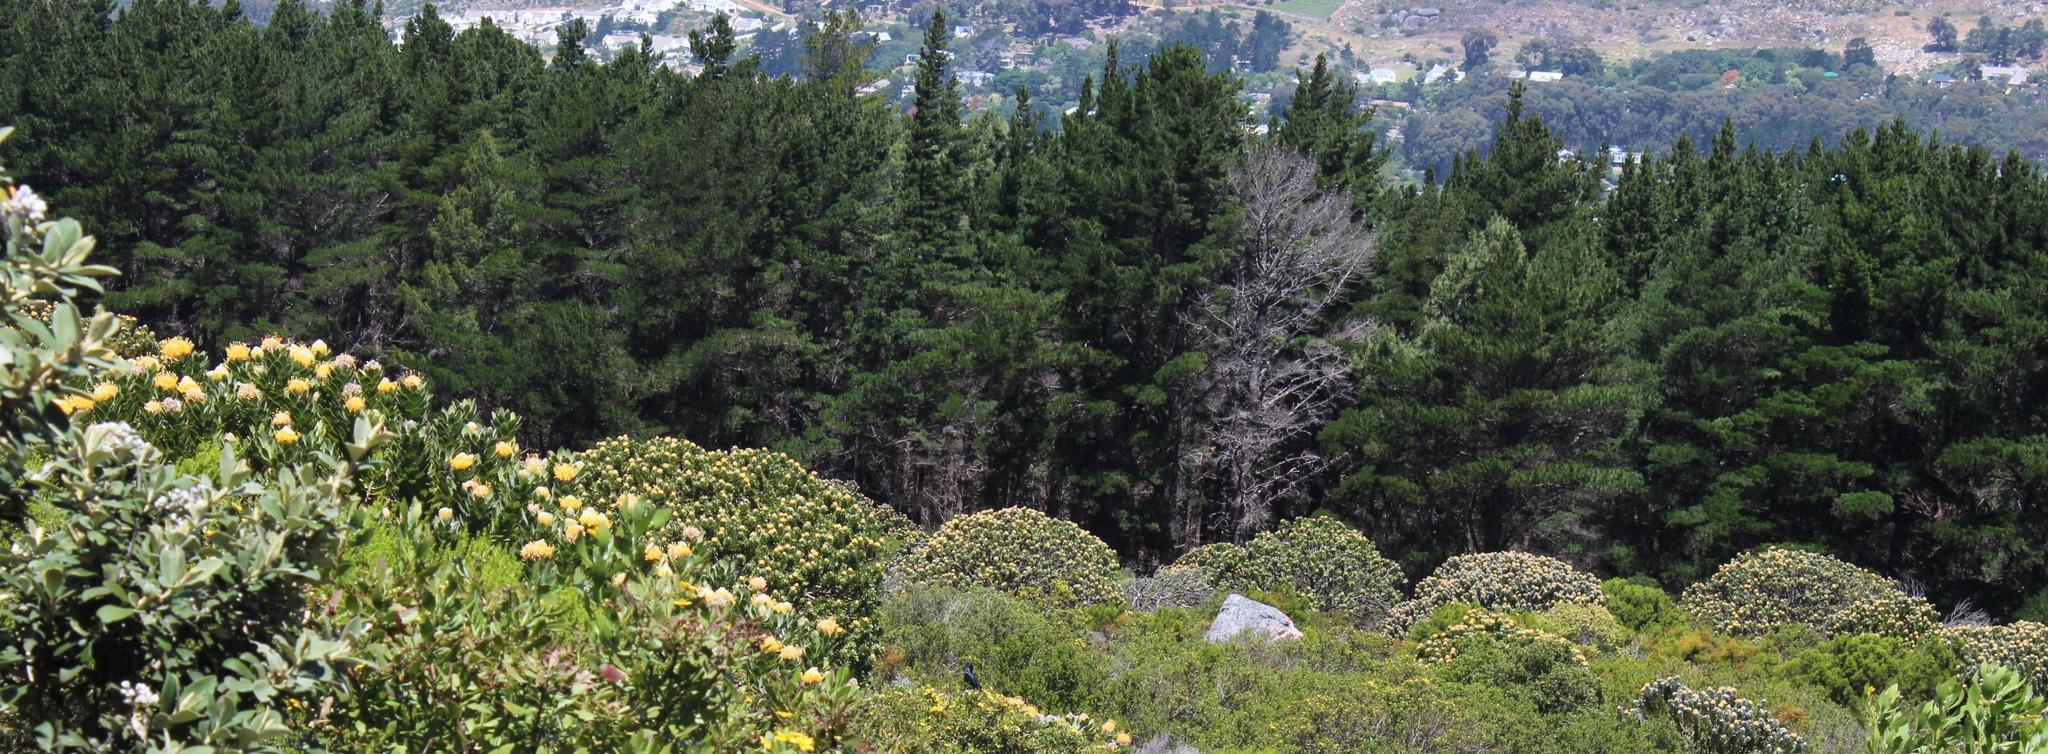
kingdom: Plantae
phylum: Tracheophyta
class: Pinopsida
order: Pinales
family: Pinaceae
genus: Pinus
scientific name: Pinus radiata
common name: Monterey pine
